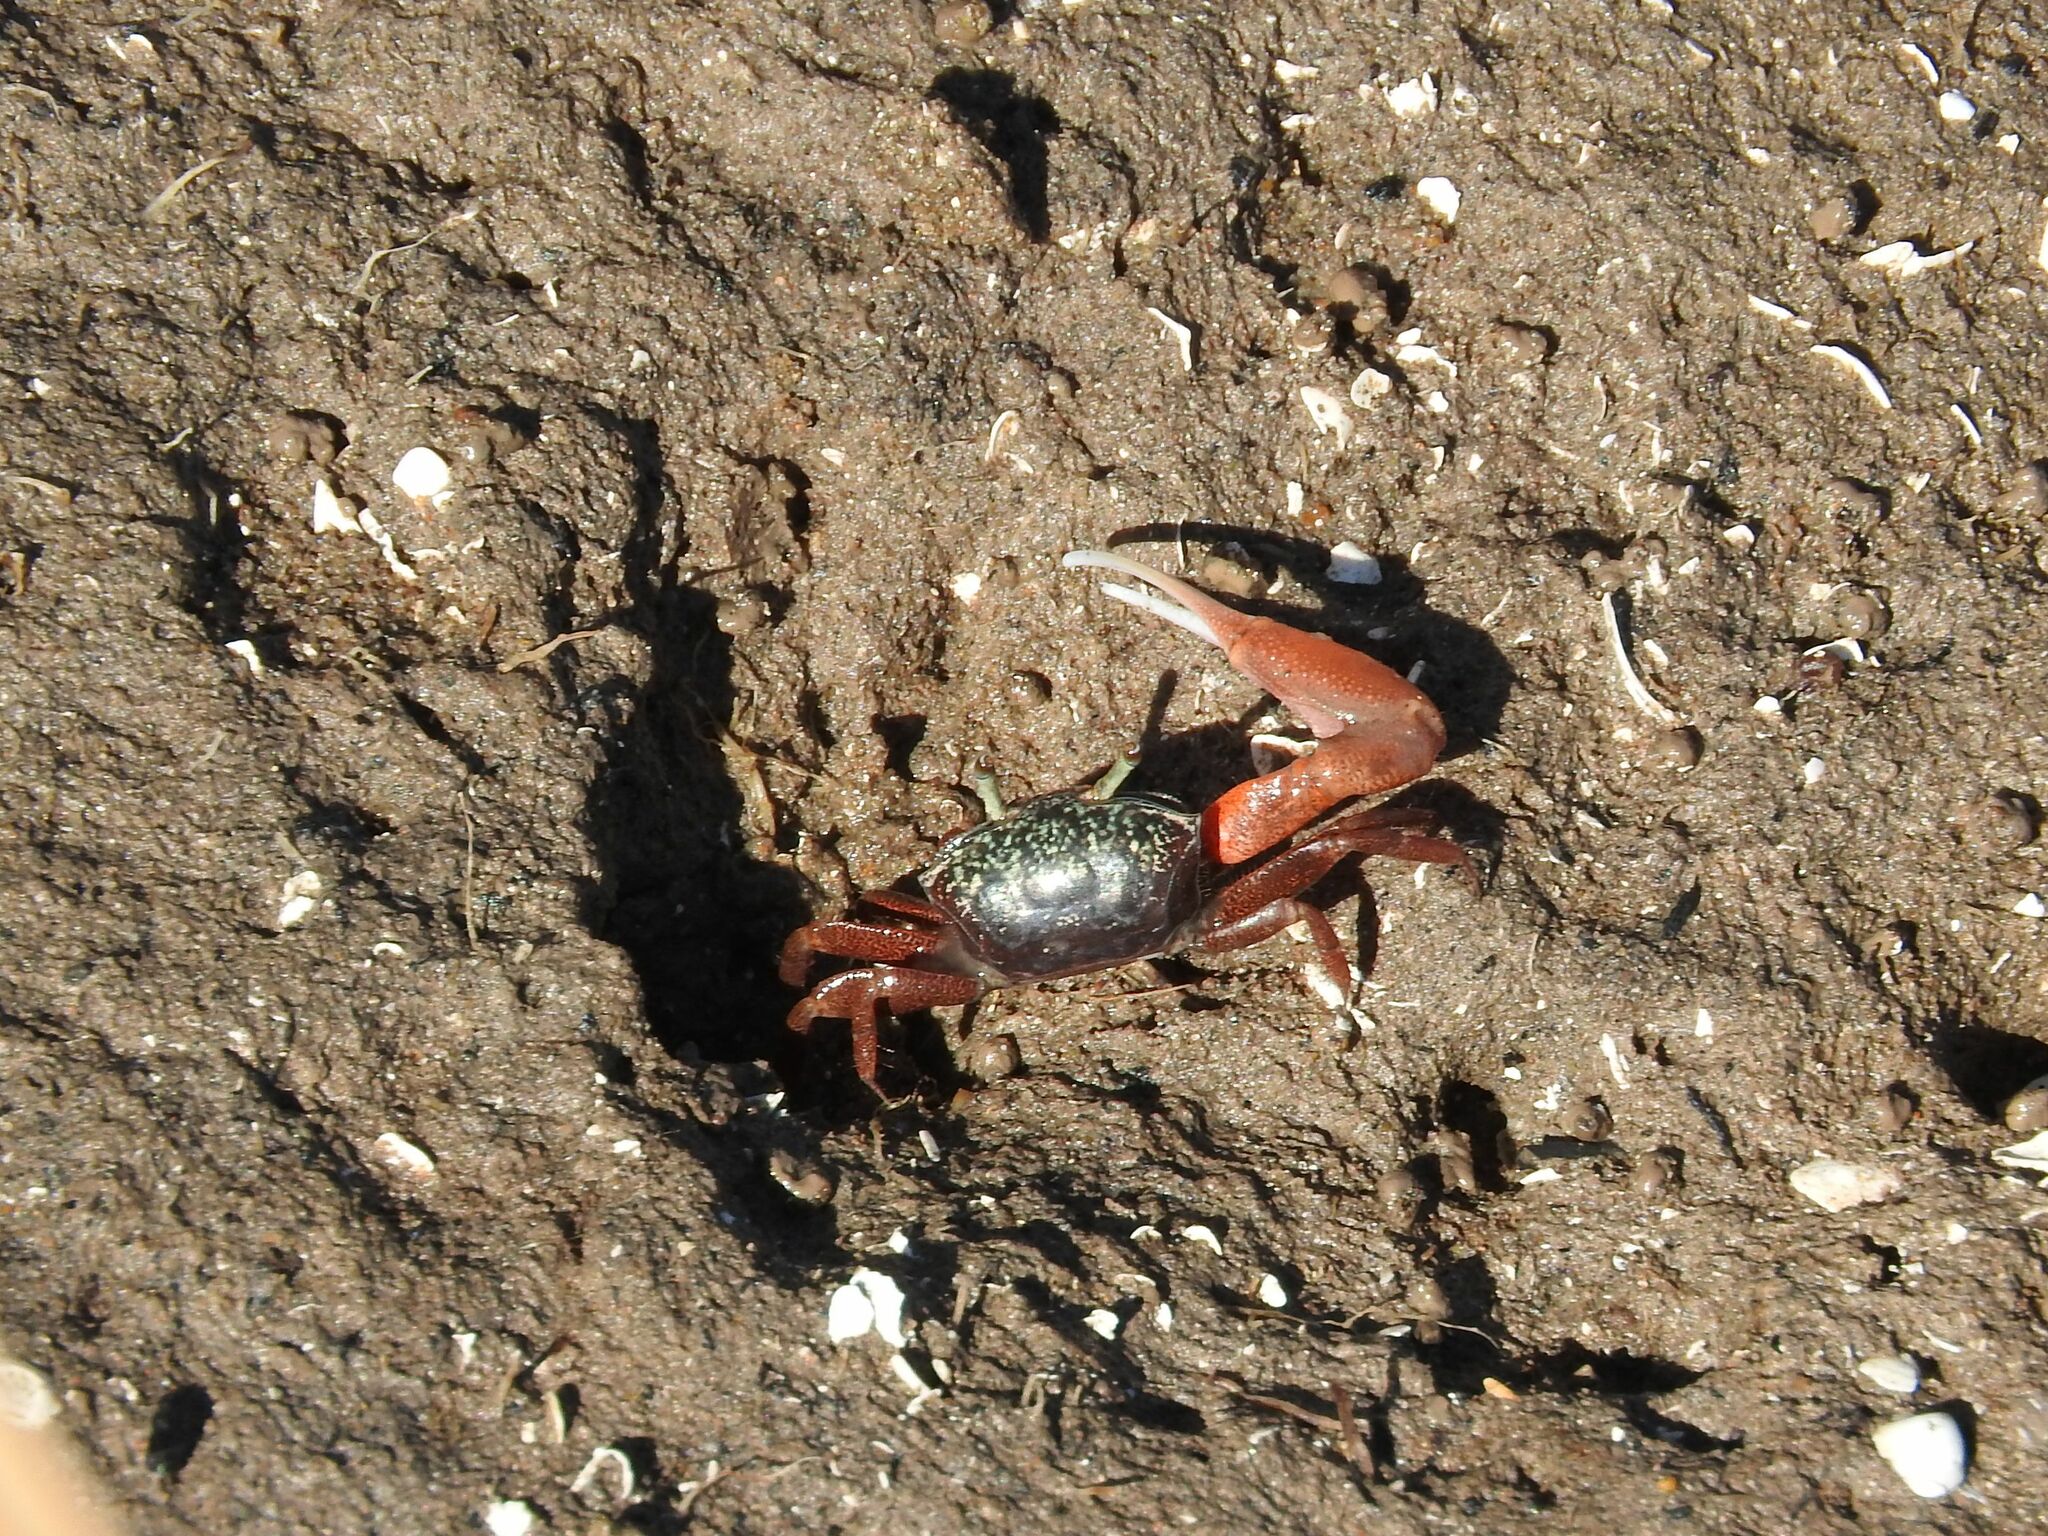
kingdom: Animalia
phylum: Arthropoda
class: Malacostraca
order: Decapoda
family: Ocypodidae
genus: Leptuca
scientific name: Leptuca uruguayensis
